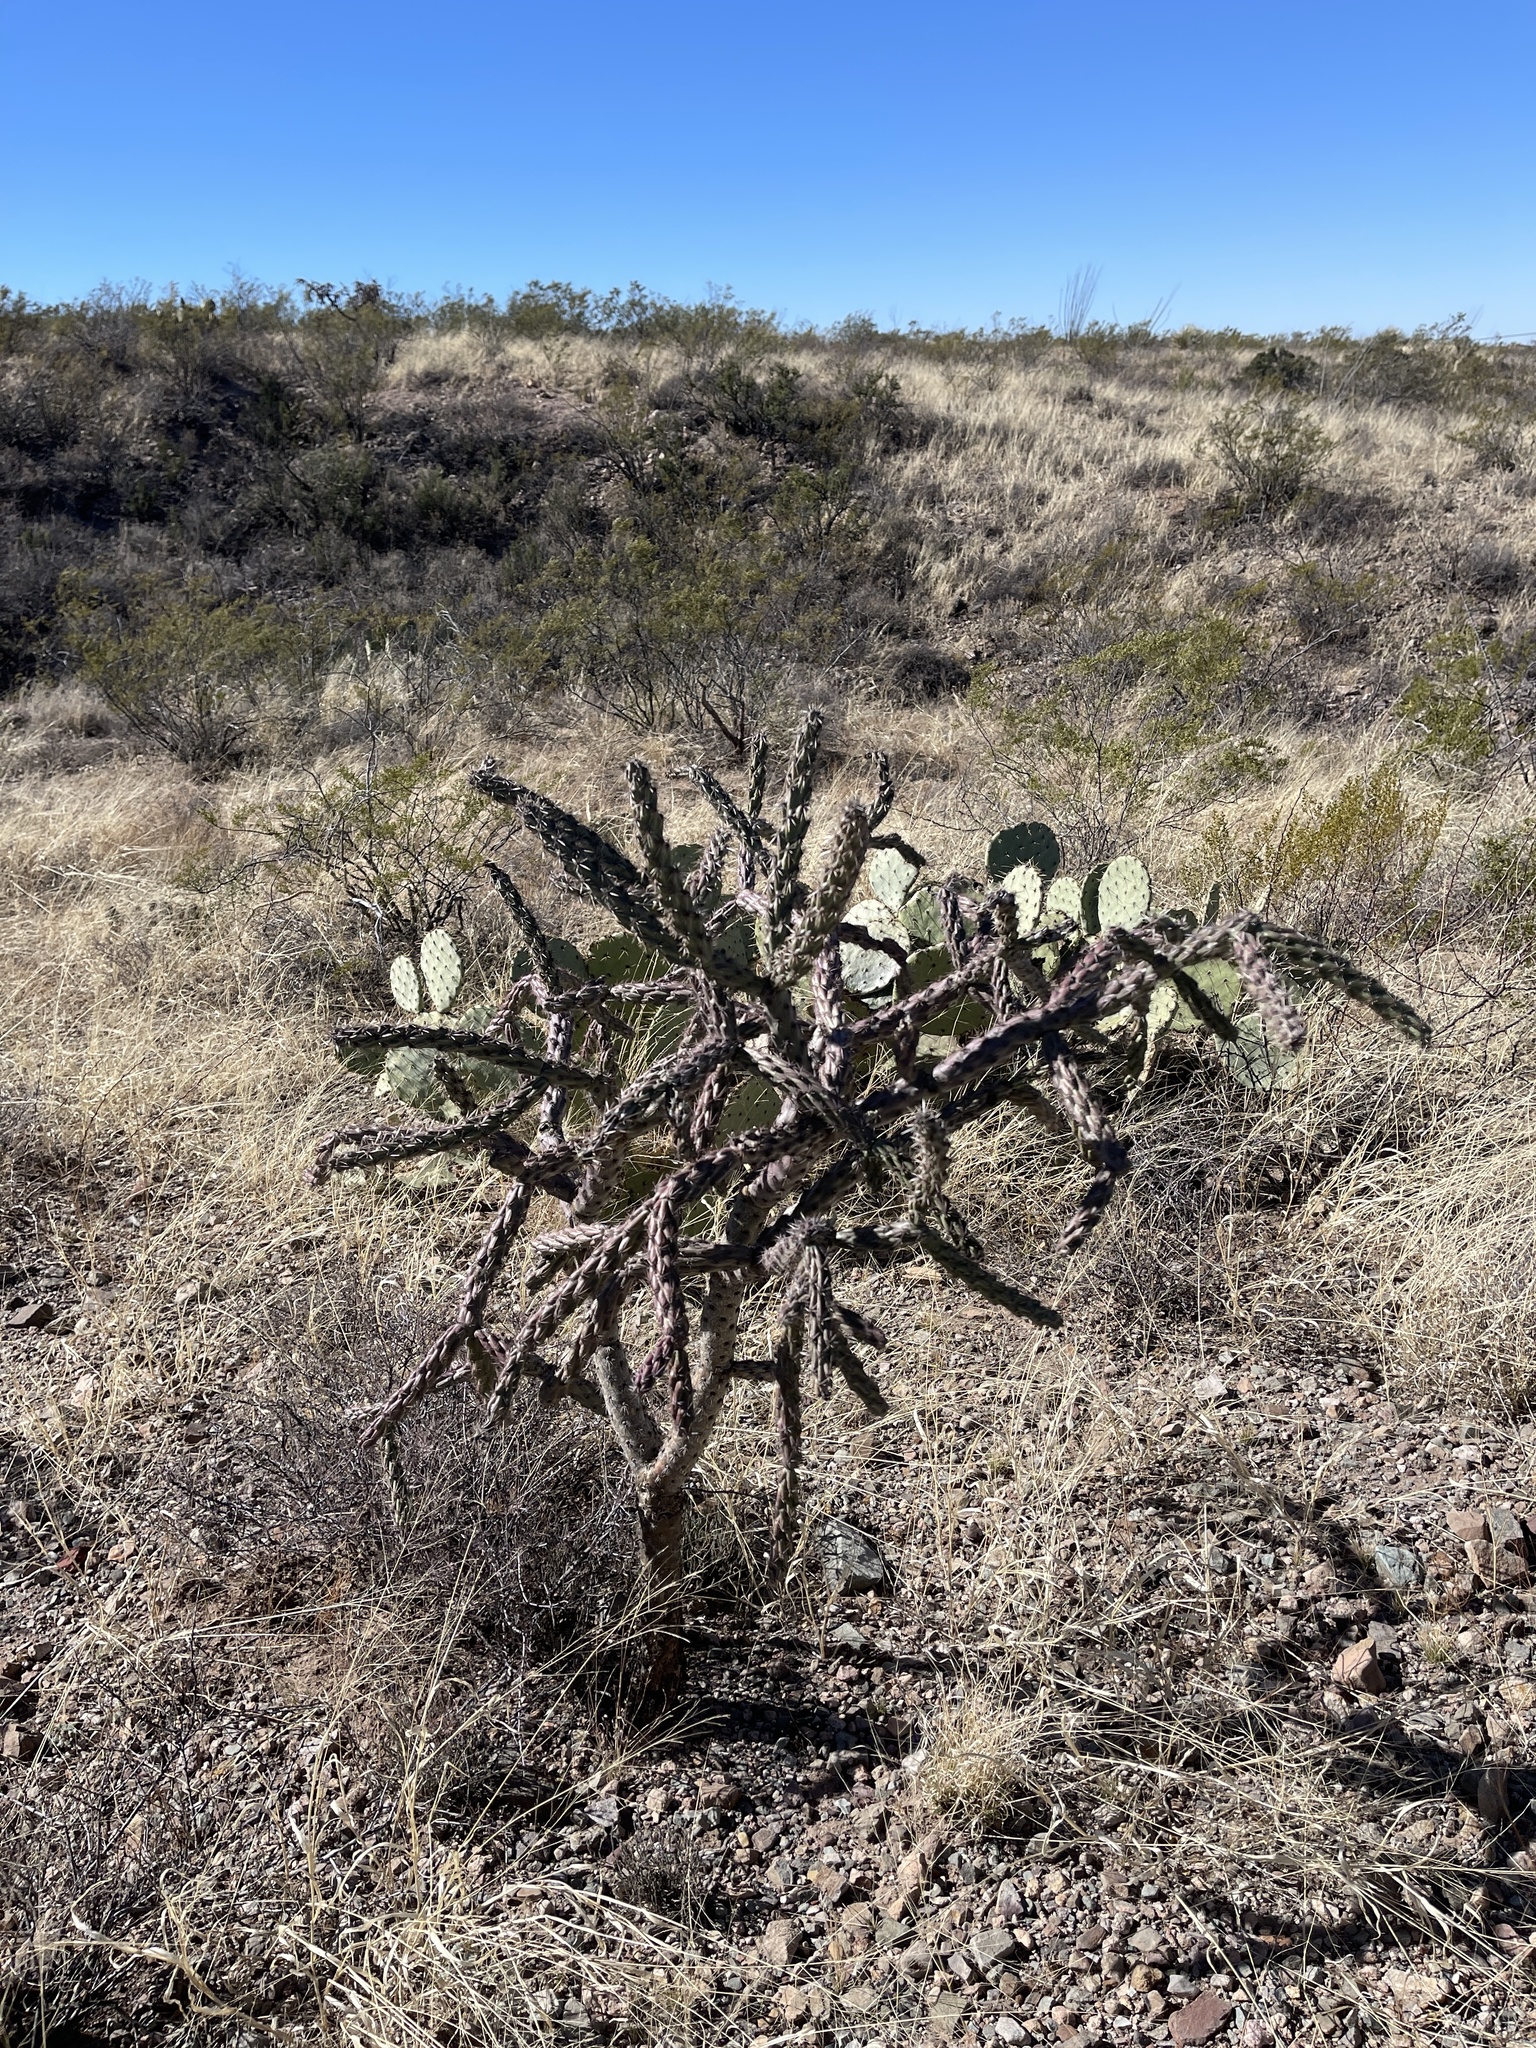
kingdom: Plantae
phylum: Tracheophyta
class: Magnoliopsida
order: Caryophyllales
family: Cactaceae
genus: Cylindropuntia
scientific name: Cylindropuntia thurberi
